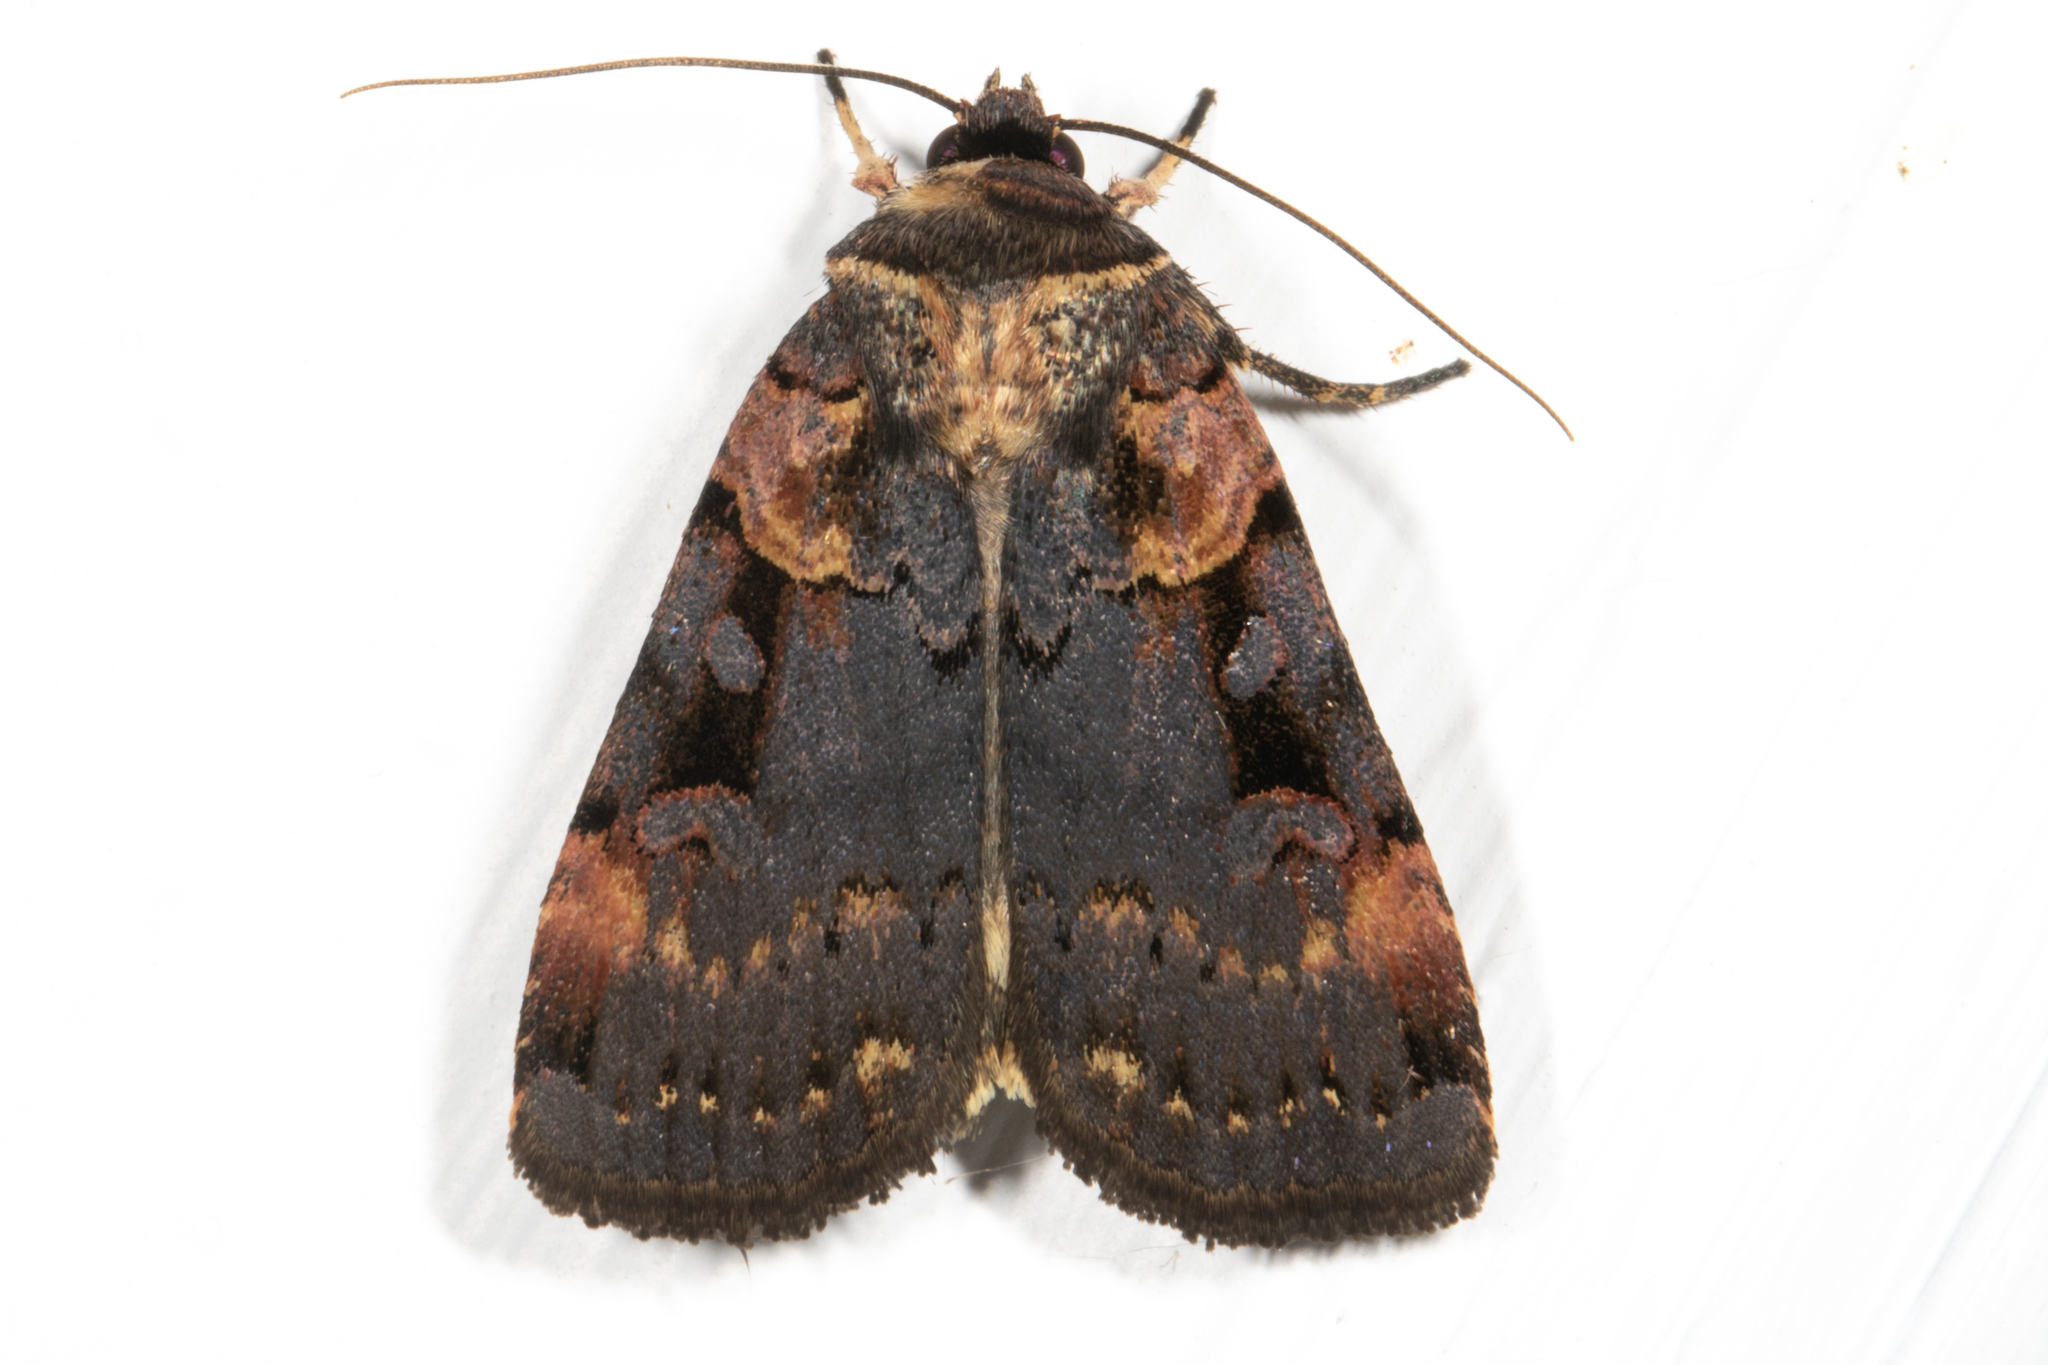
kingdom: Animalia
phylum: Arthropoda
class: Insecta
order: Lepidoptera
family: Noctuidae
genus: Pseudohermonassa
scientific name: Pseudohermonassa bicarnea
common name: Pink spotted dart
